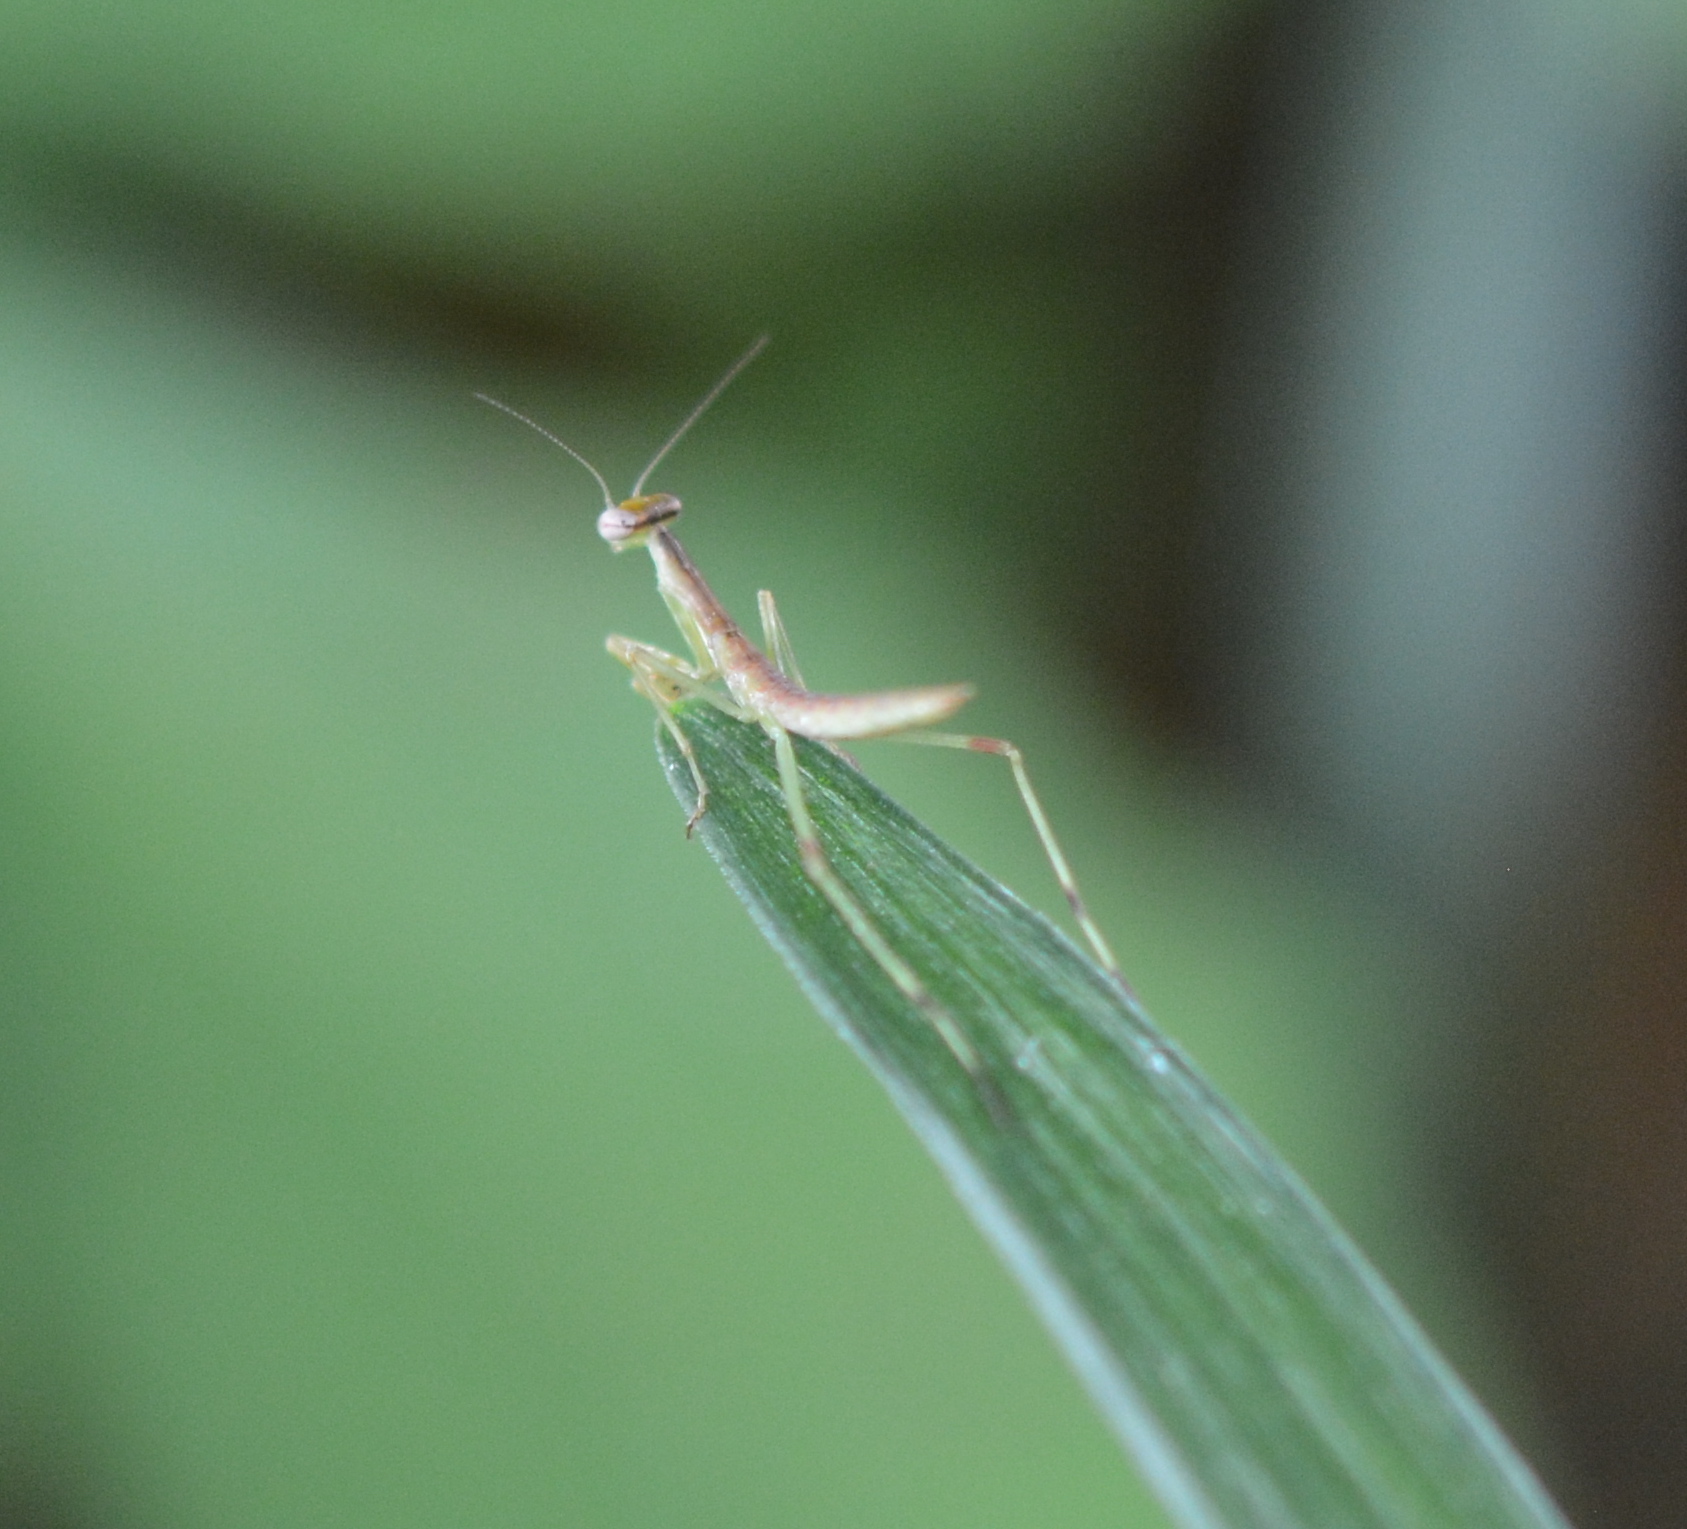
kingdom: Animalia
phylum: Arthropoda
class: Insecta
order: Mantodea
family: Mantidae
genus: Stagmomantis
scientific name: Stagmomantis carolina
